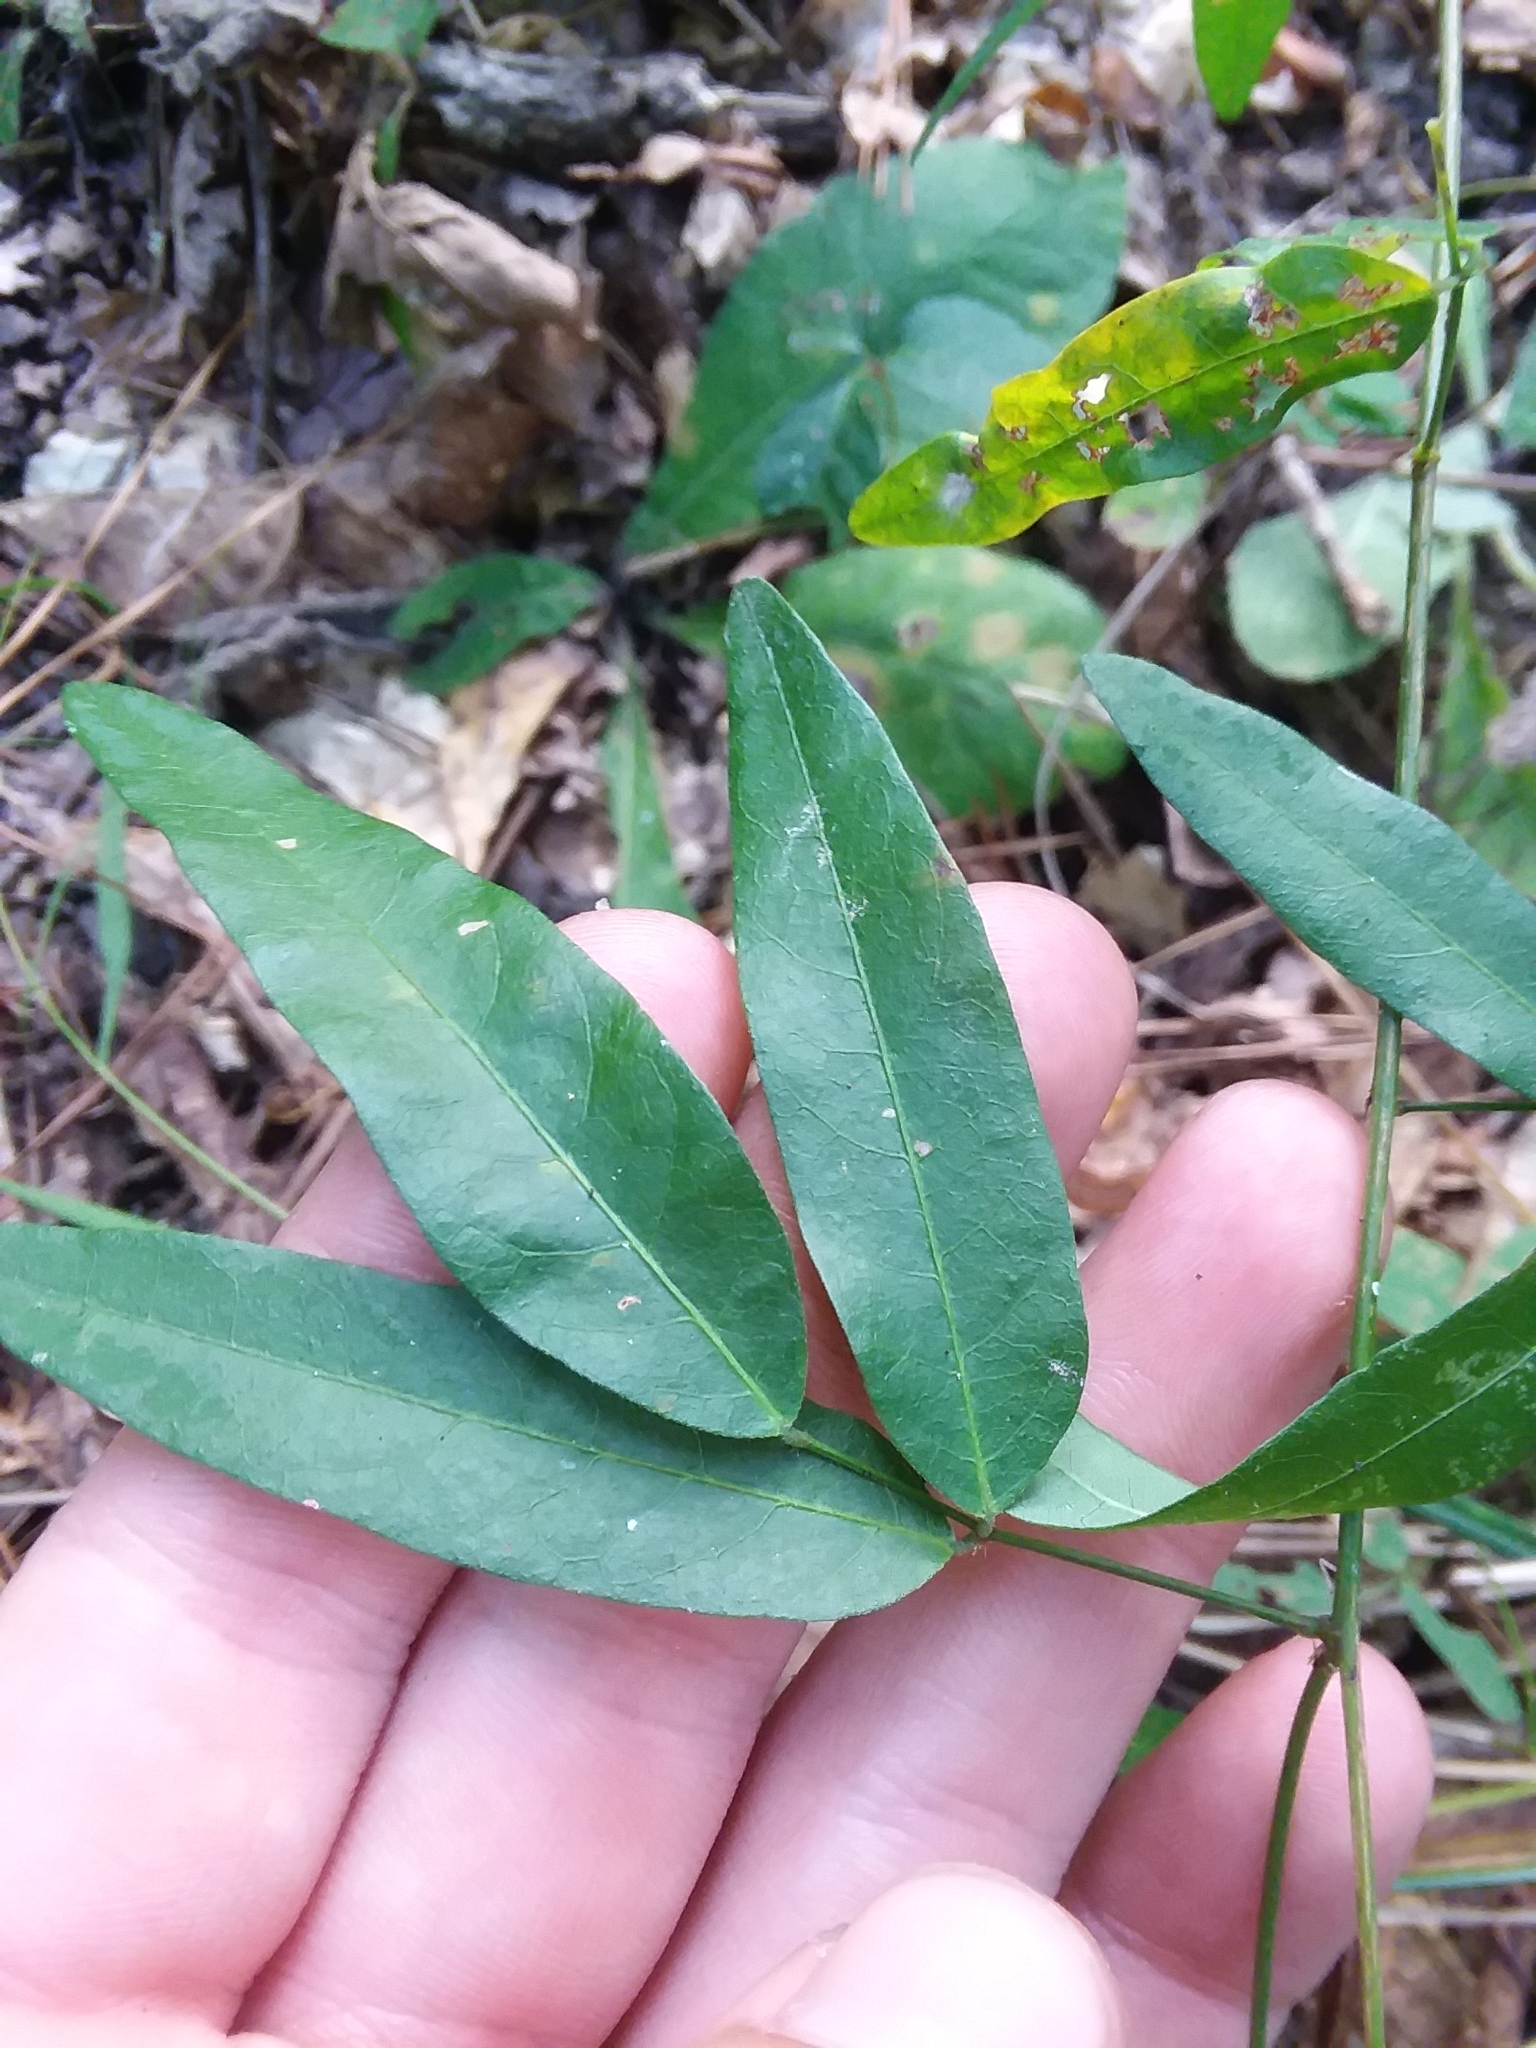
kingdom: Plantae
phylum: Tracheophyta
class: Magnoliopsida
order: Fabales
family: Fabaceae
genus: Desmodium
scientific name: Desmodium paniculatum
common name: Panicled tick-clover
